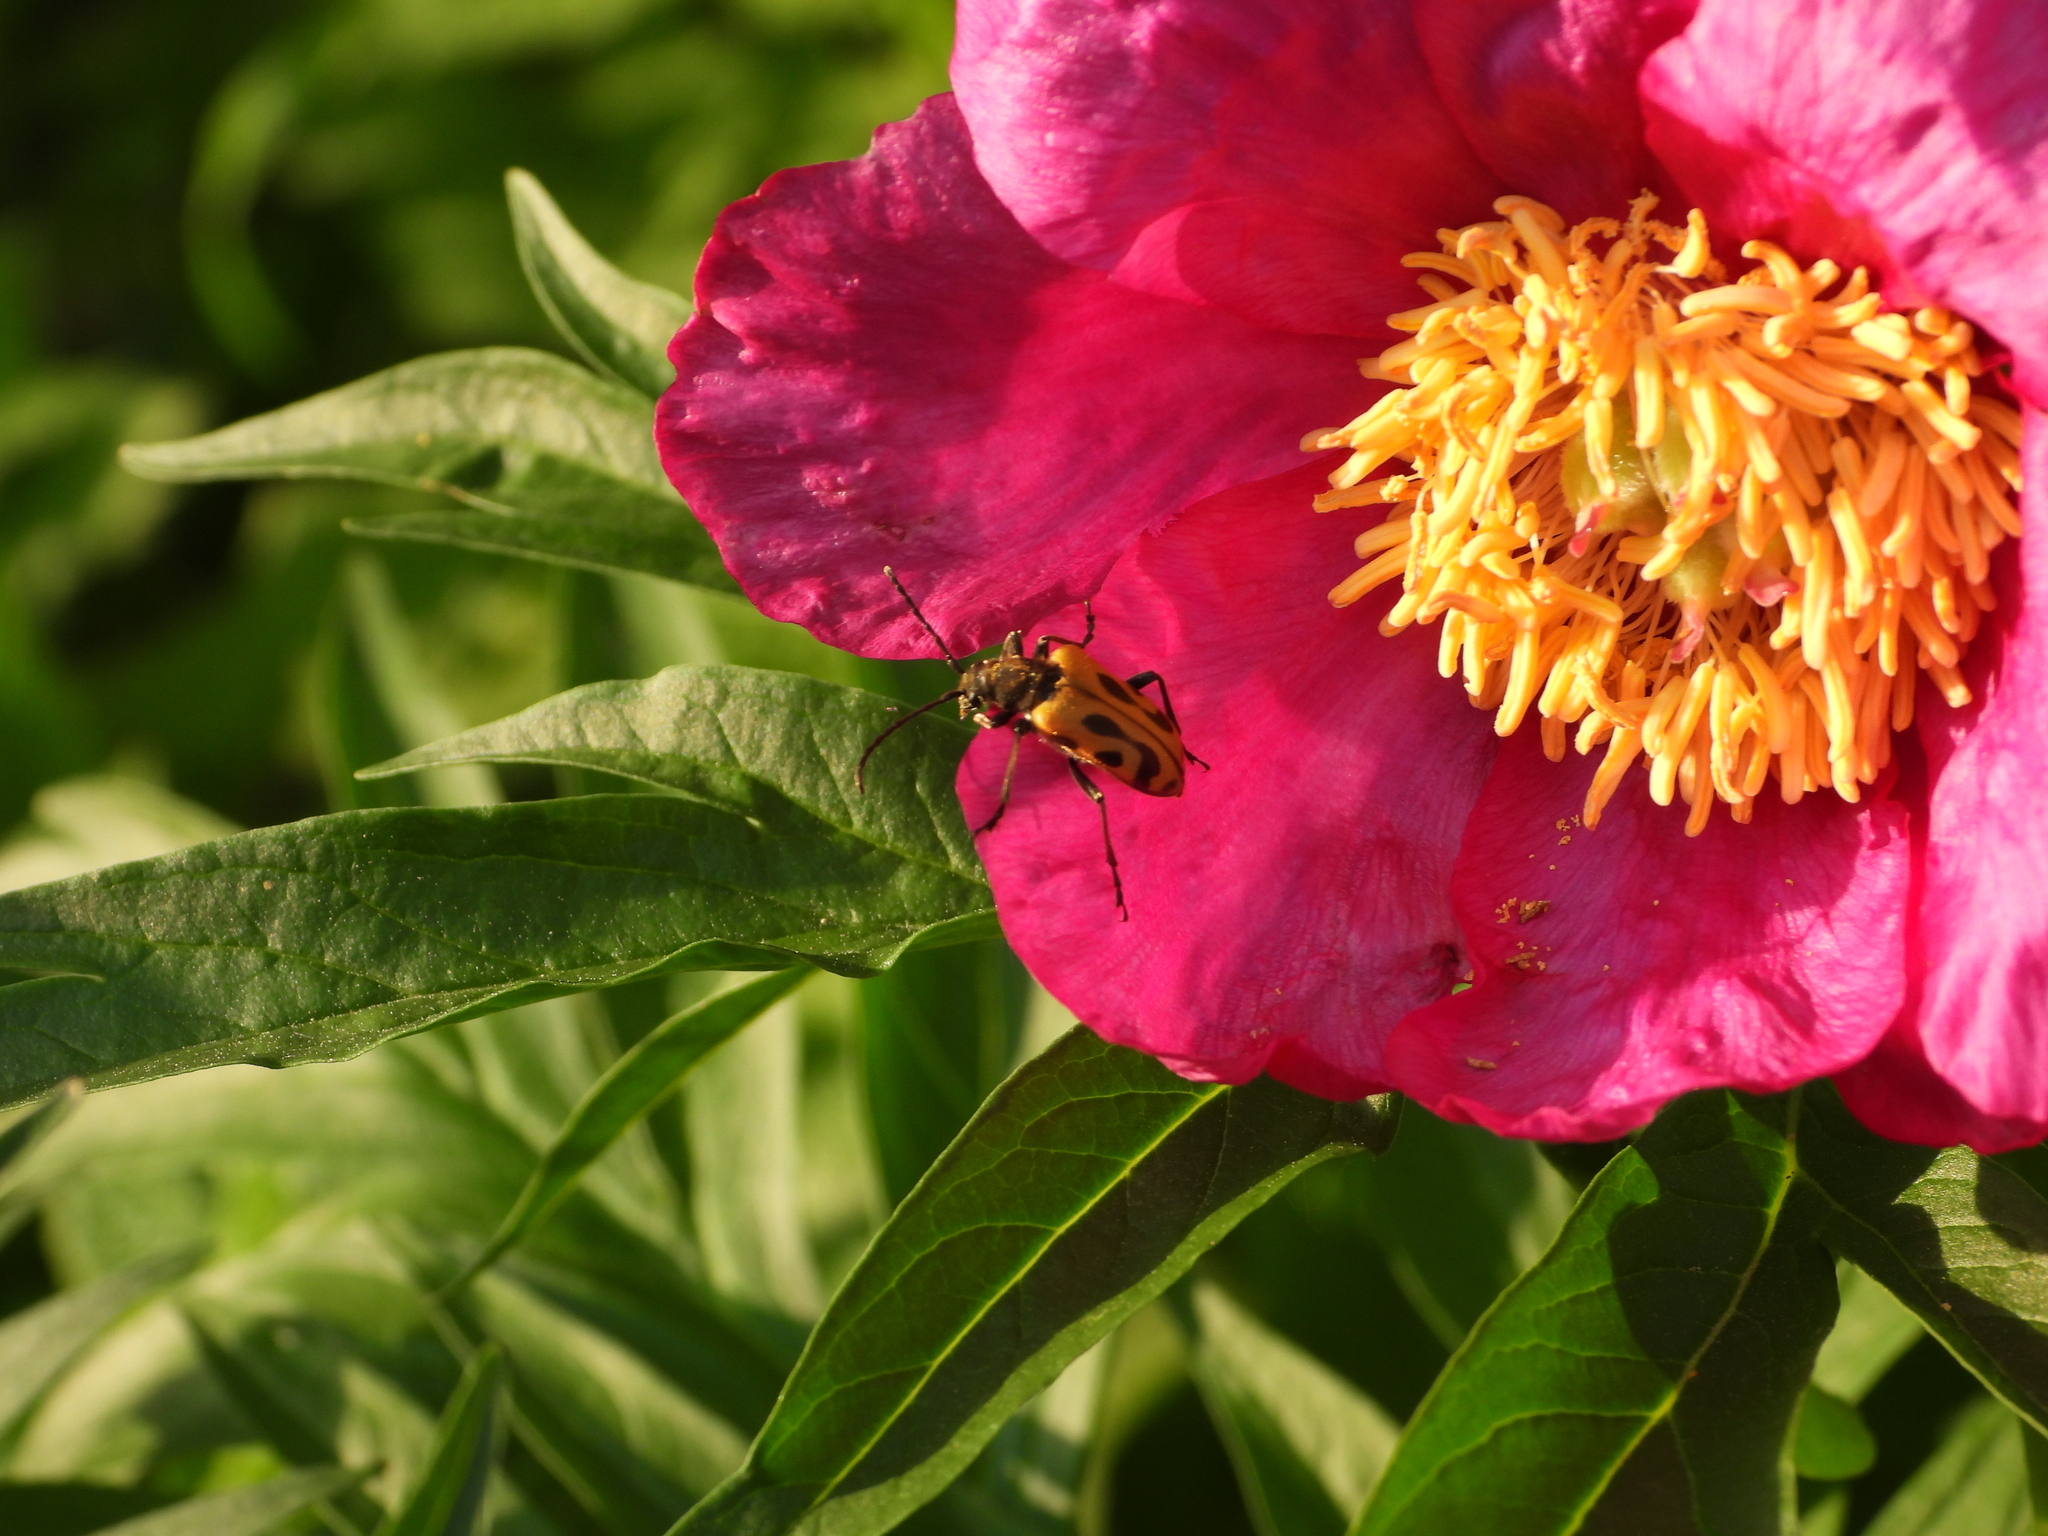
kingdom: Animalia
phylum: Arthropoda
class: Insecta
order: Coleoptera
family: Cerambycidae
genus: Brachyta
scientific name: Brachyta interrogationis
